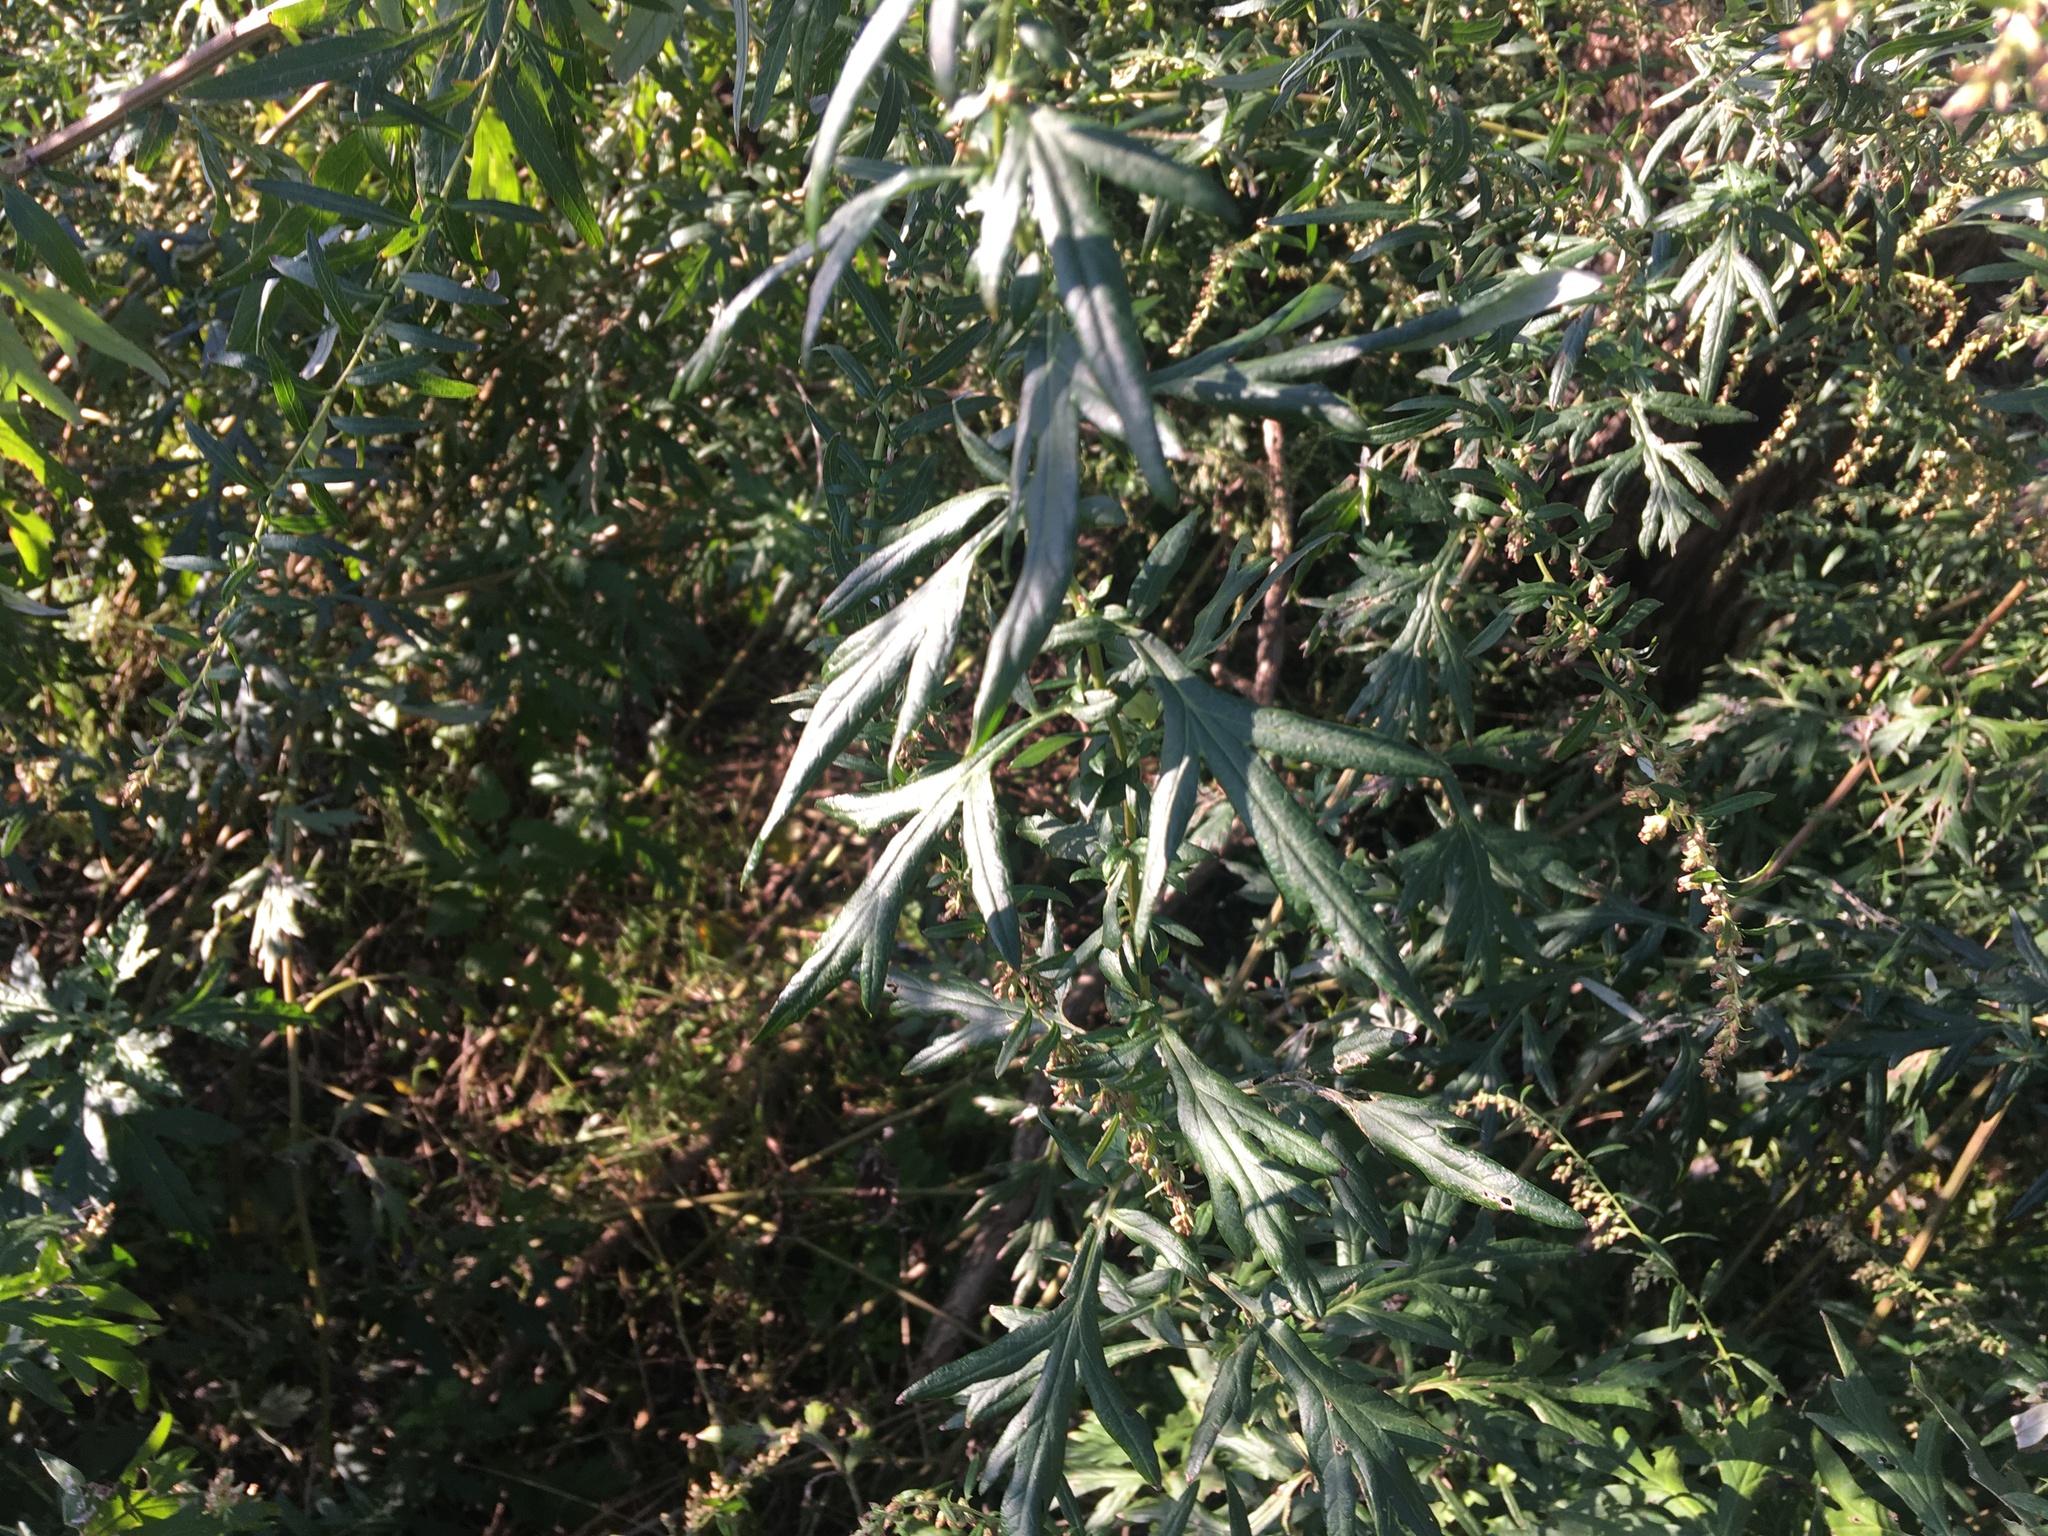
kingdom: Plantae
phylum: Tracheophyta
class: Magnoliopsida
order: Asterales
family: Asteraceae
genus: Artemisia
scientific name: Artemisia vulgaris
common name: Mugwort
